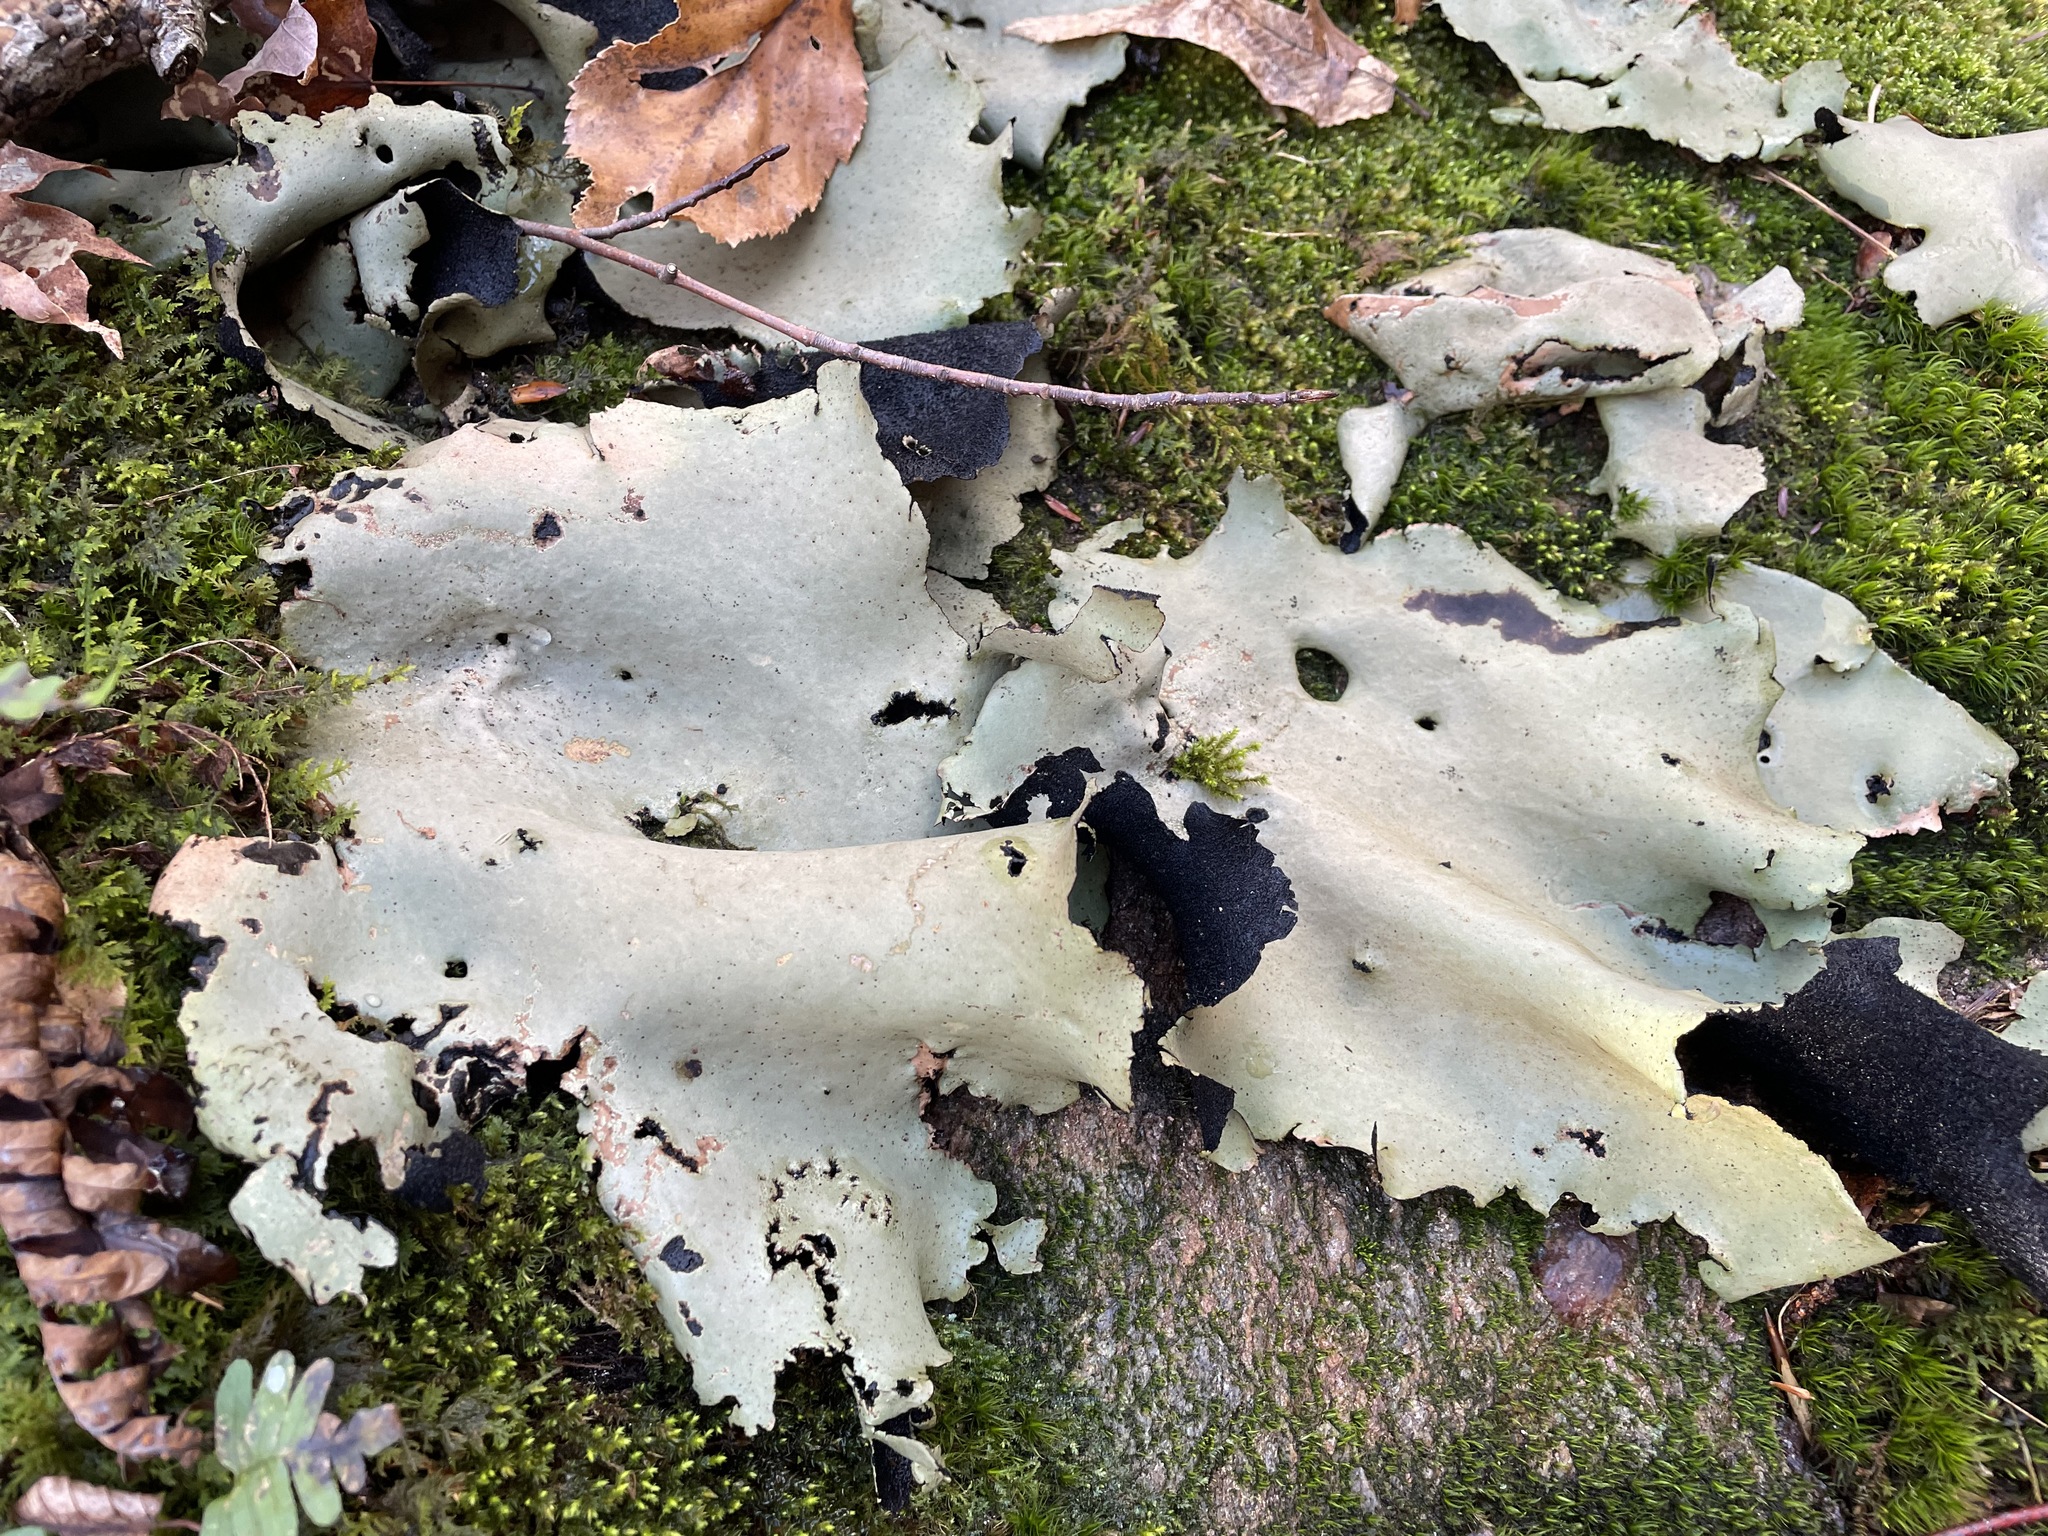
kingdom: Fungi
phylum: Ascomycota
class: Lecanoromycetes
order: Umbilicariales
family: Umbilicariaceae
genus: Umbilicaria
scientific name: Umbilicaria americana
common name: Frosted rock tripe
